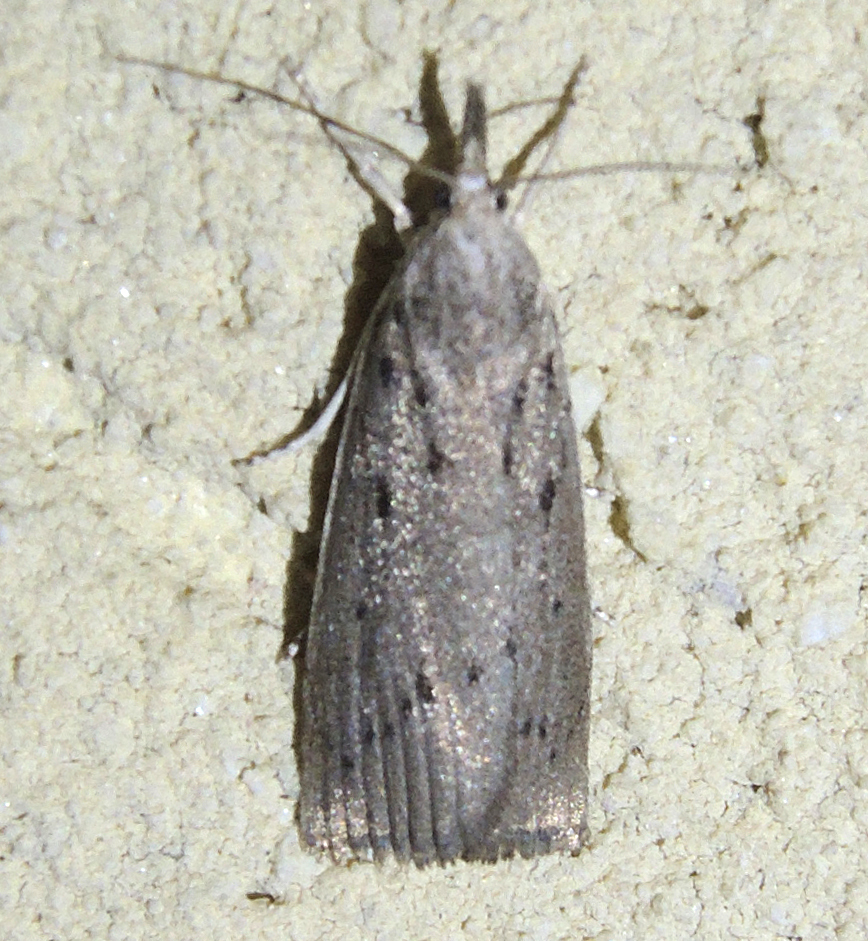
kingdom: Animalia
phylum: Arthropoda
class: Insecta
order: Lepidoptera
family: Crambidae
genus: Calamotropha
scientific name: Calamotropha paludella
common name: Bulrush veneer
